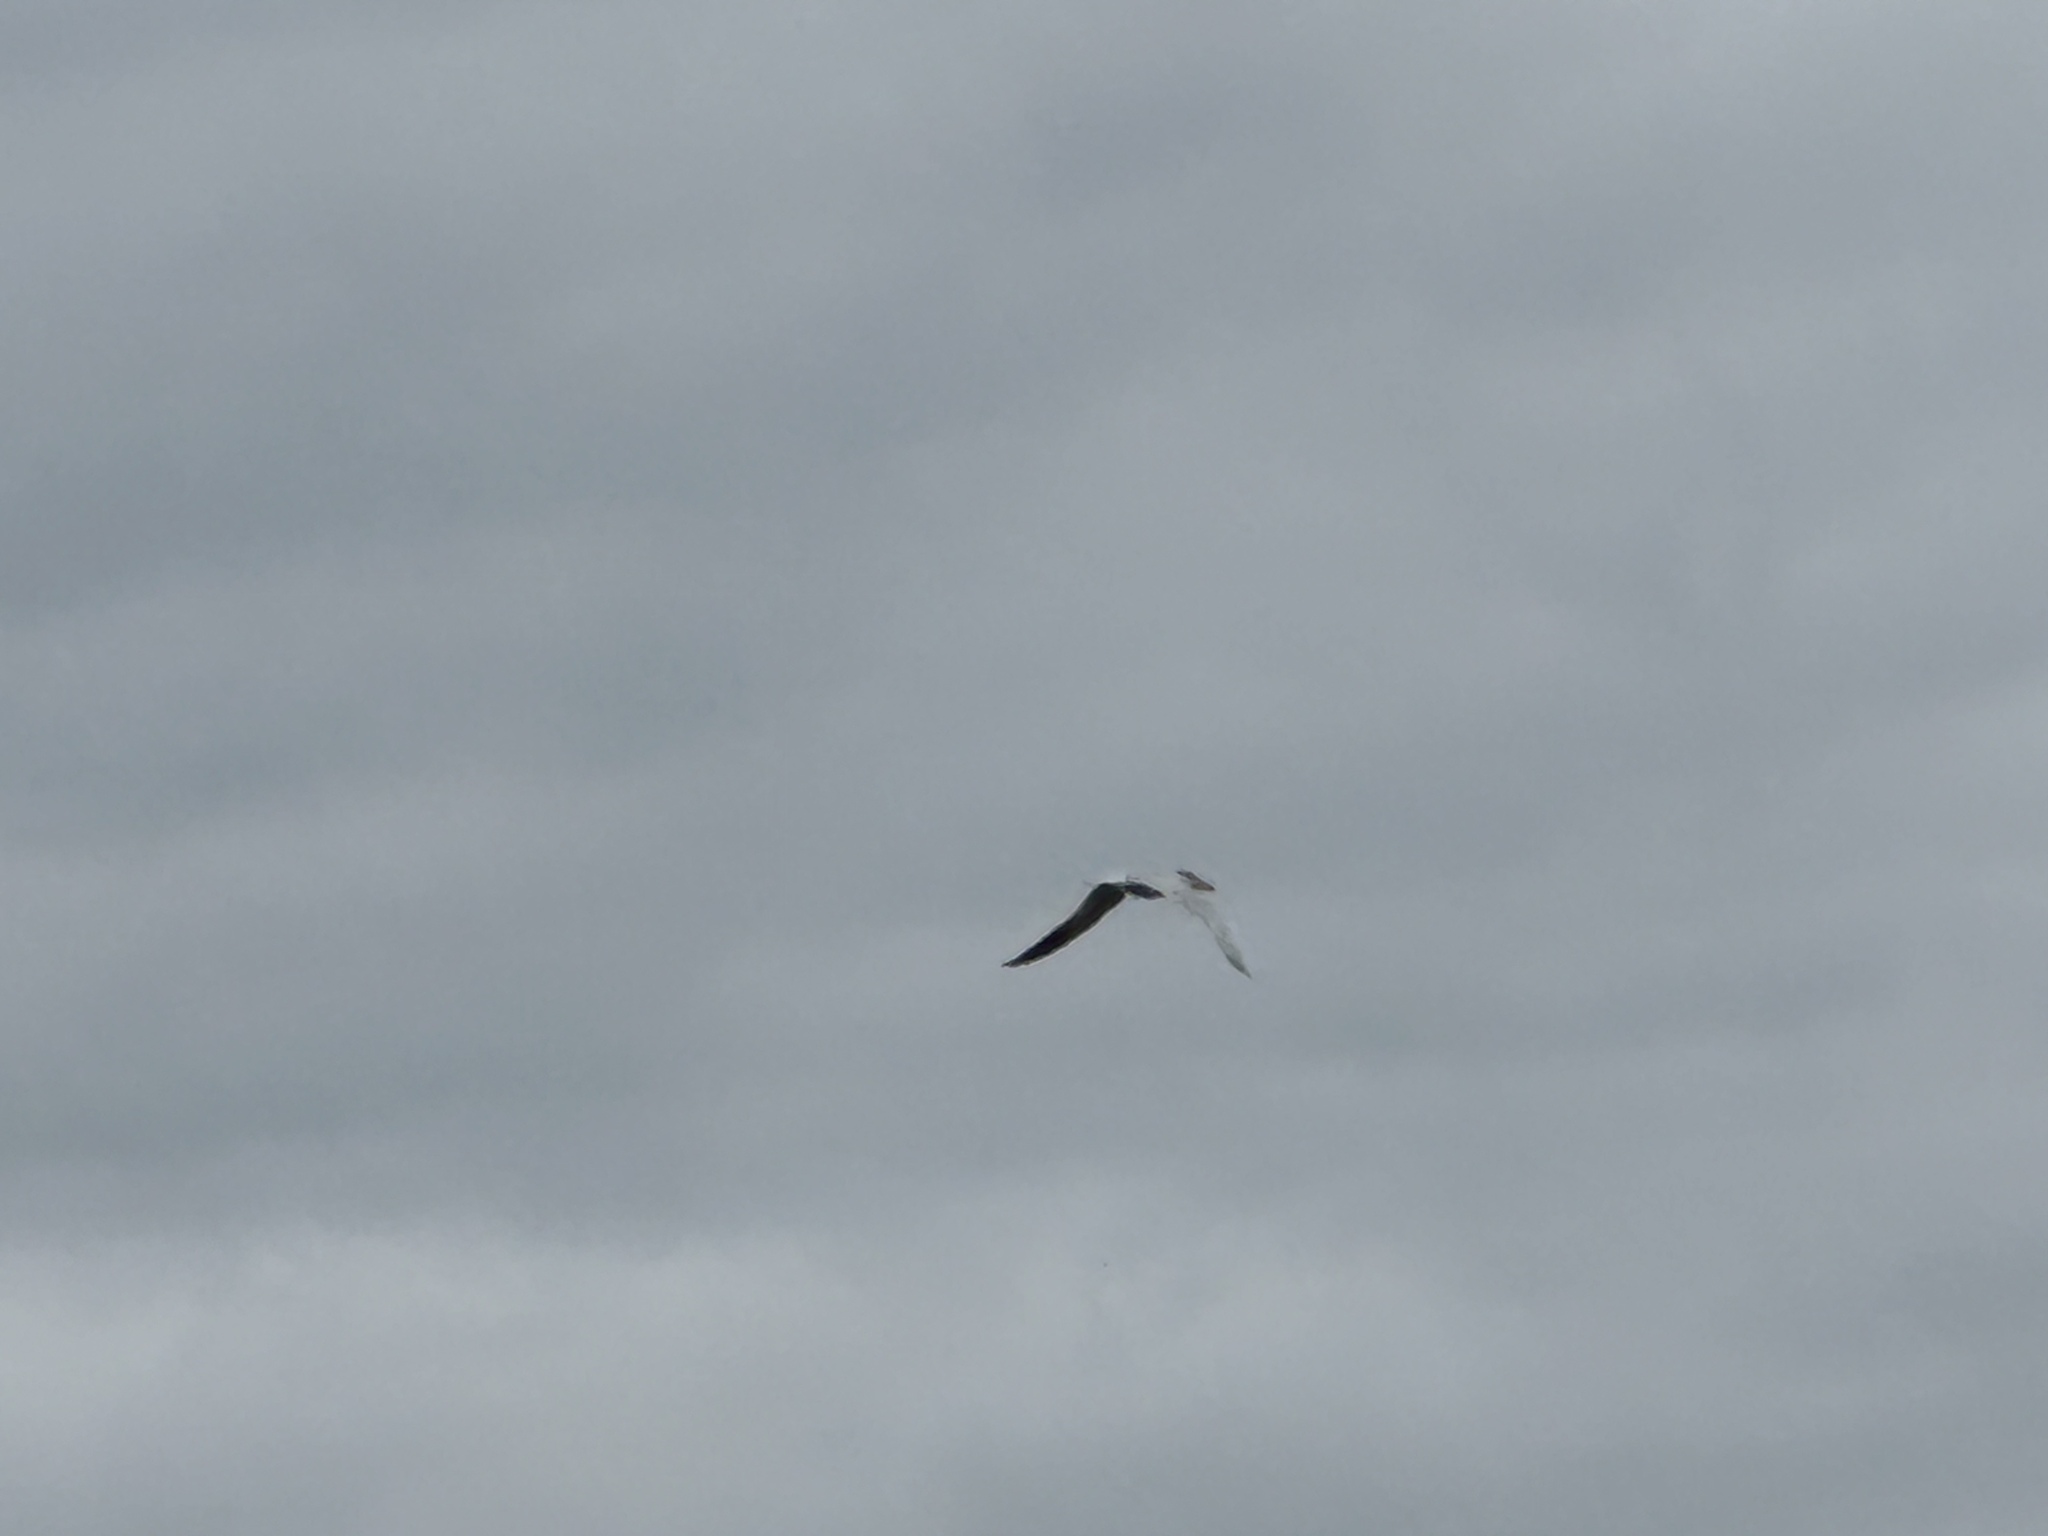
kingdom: Animalia
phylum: Chordata
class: Aves
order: Charadriiformes
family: Laridae
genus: Hydroprogne
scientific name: Hydroprogne caspia
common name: Caspian tern
